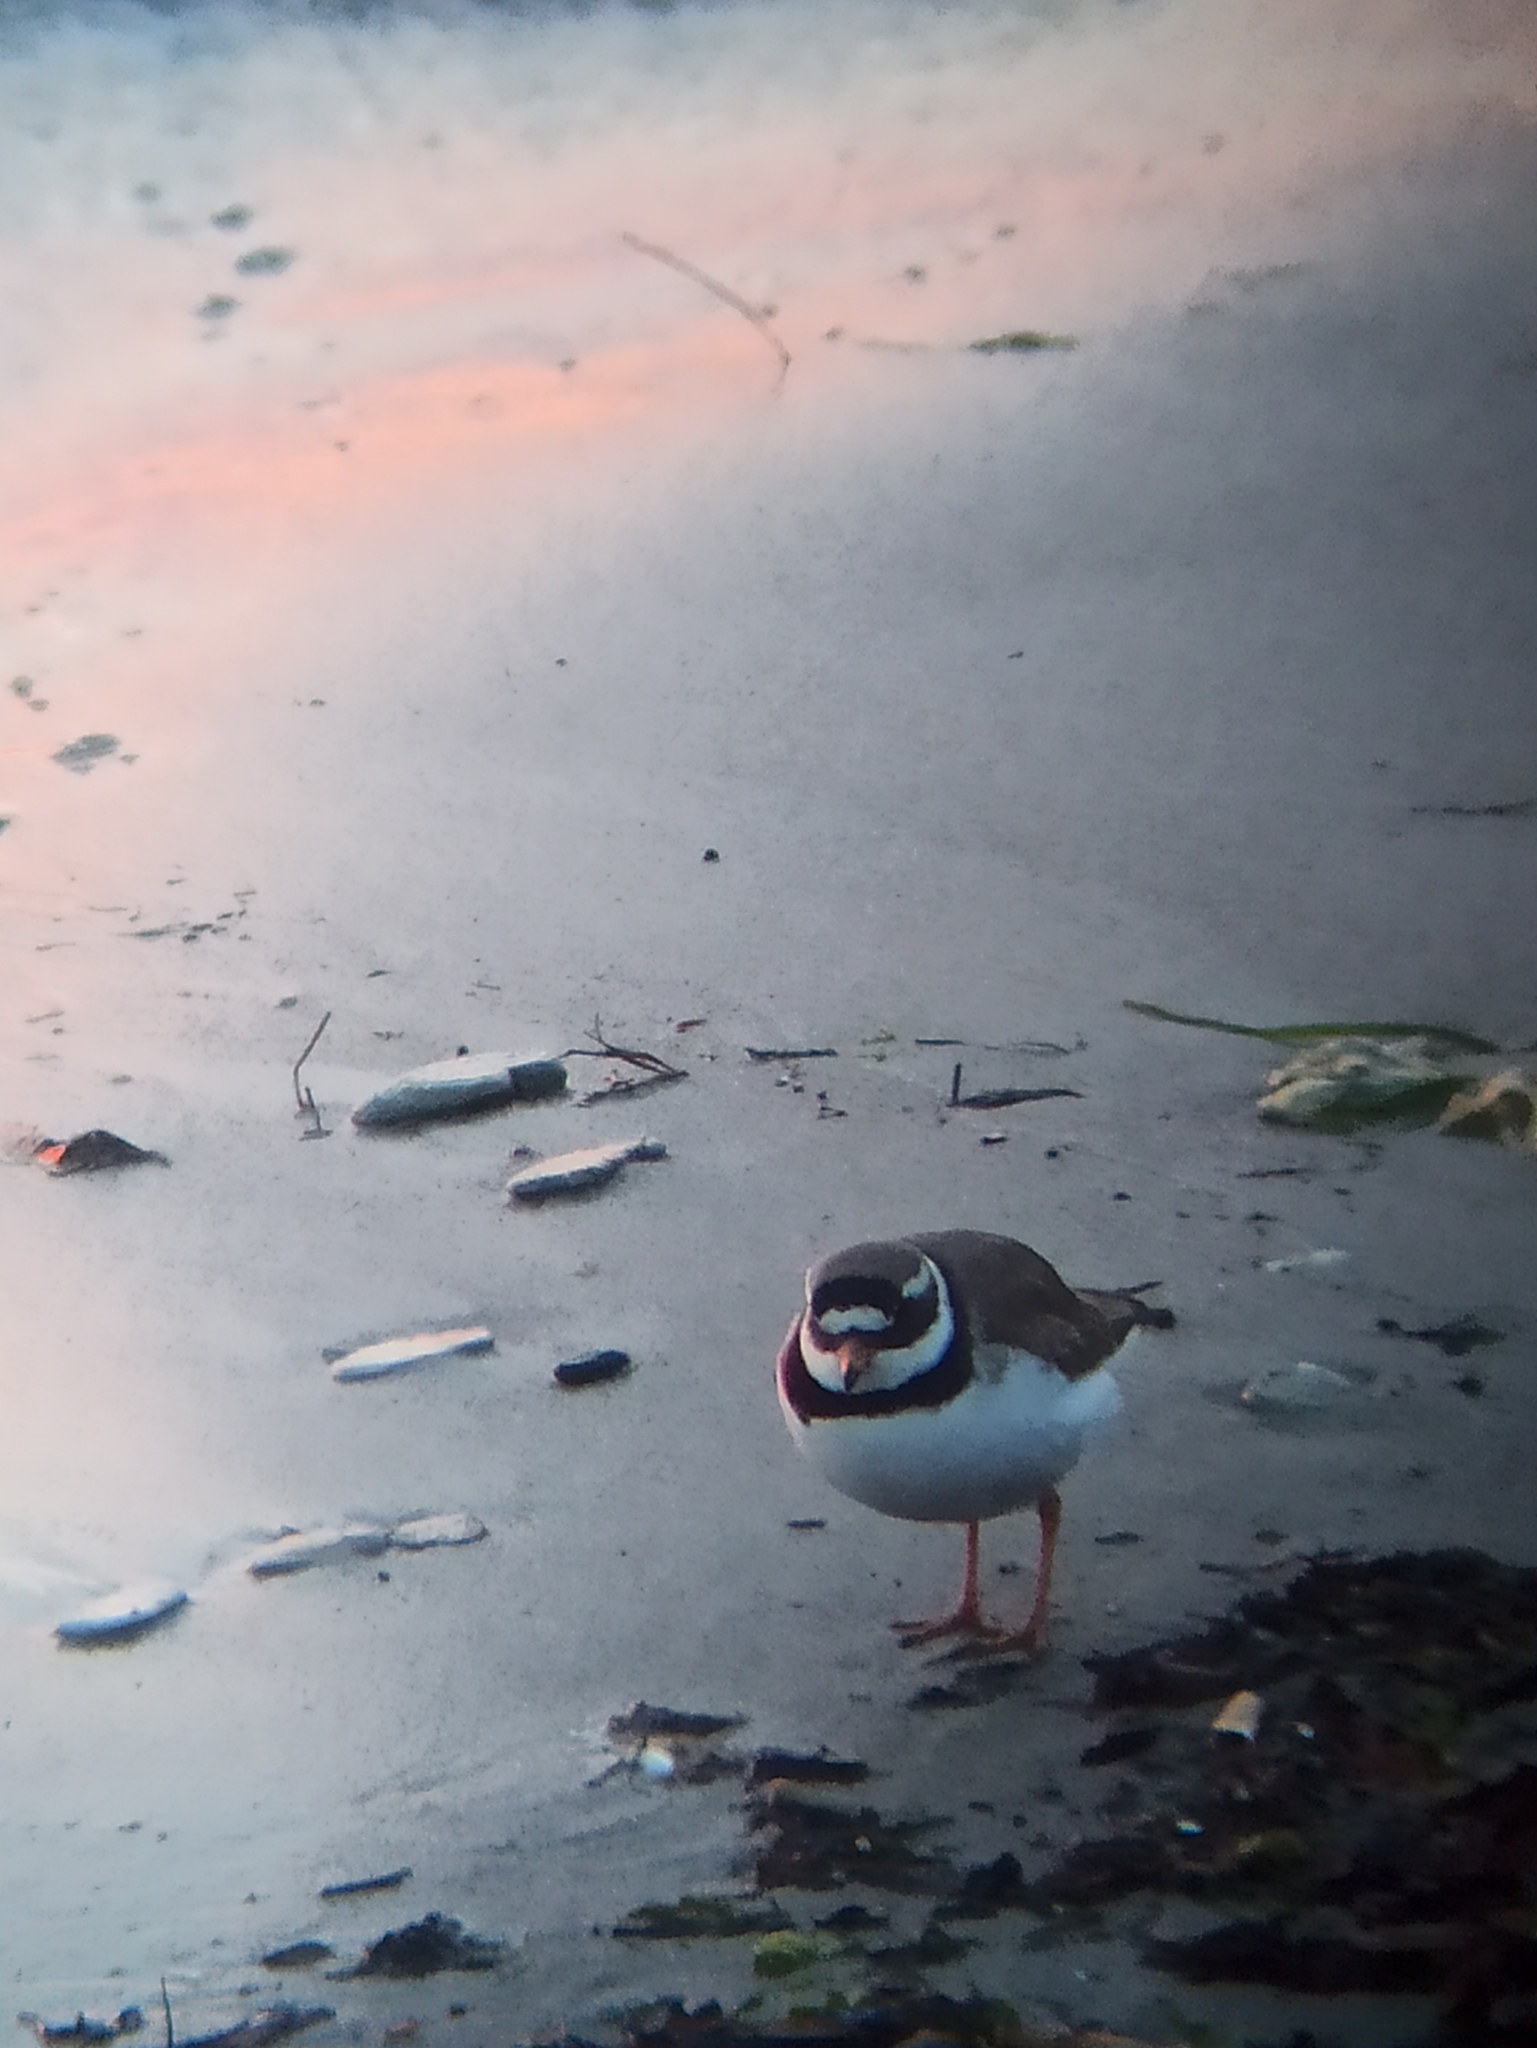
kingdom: Animalia
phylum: Chordata
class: Aves
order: Charadriiformes
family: Charadriidae
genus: Charadrius
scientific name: Charadrius hiaticula
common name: Common ringed plover
